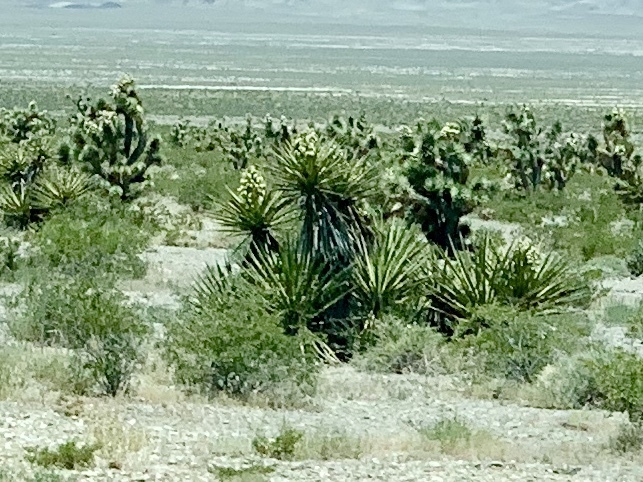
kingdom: Plantae
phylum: Tracheophyta
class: Liliopsida
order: Asparagales
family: Asparagaceae
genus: Yucca
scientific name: Yucca schidigera
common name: Mojave yucca
